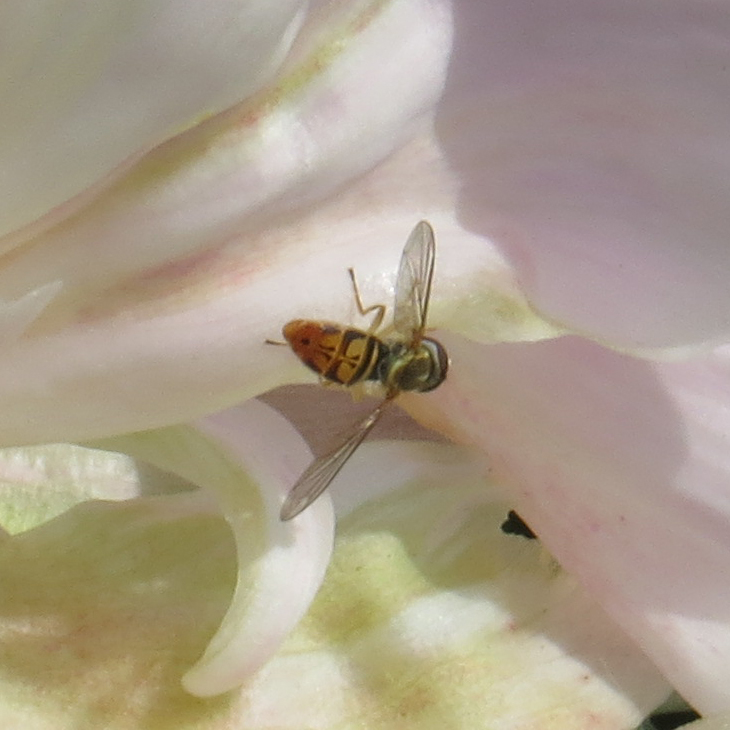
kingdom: Animalia
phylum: Arthropoda
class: Insecta
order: Diptera
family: Syrphidae
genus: Toxomerus
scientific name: Toxomerus marginatus
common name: Syrphid fly
